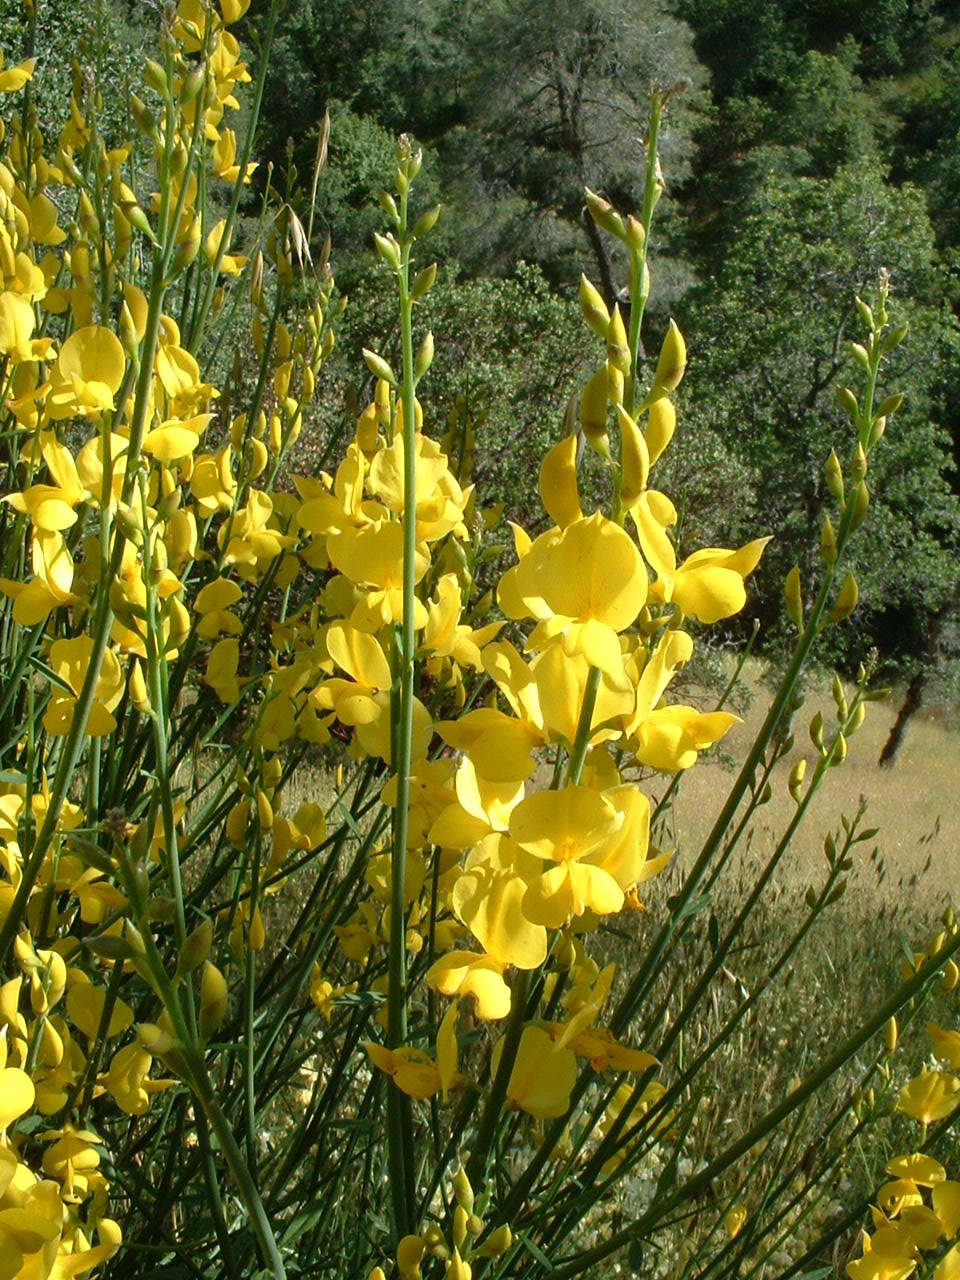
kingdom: Plantae
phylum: Tracheophyta
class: Magnoliopsida
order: Fabales
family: Fabaceae
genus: Cytisus
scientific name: Cytisus scoparius
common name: Scotch broom
